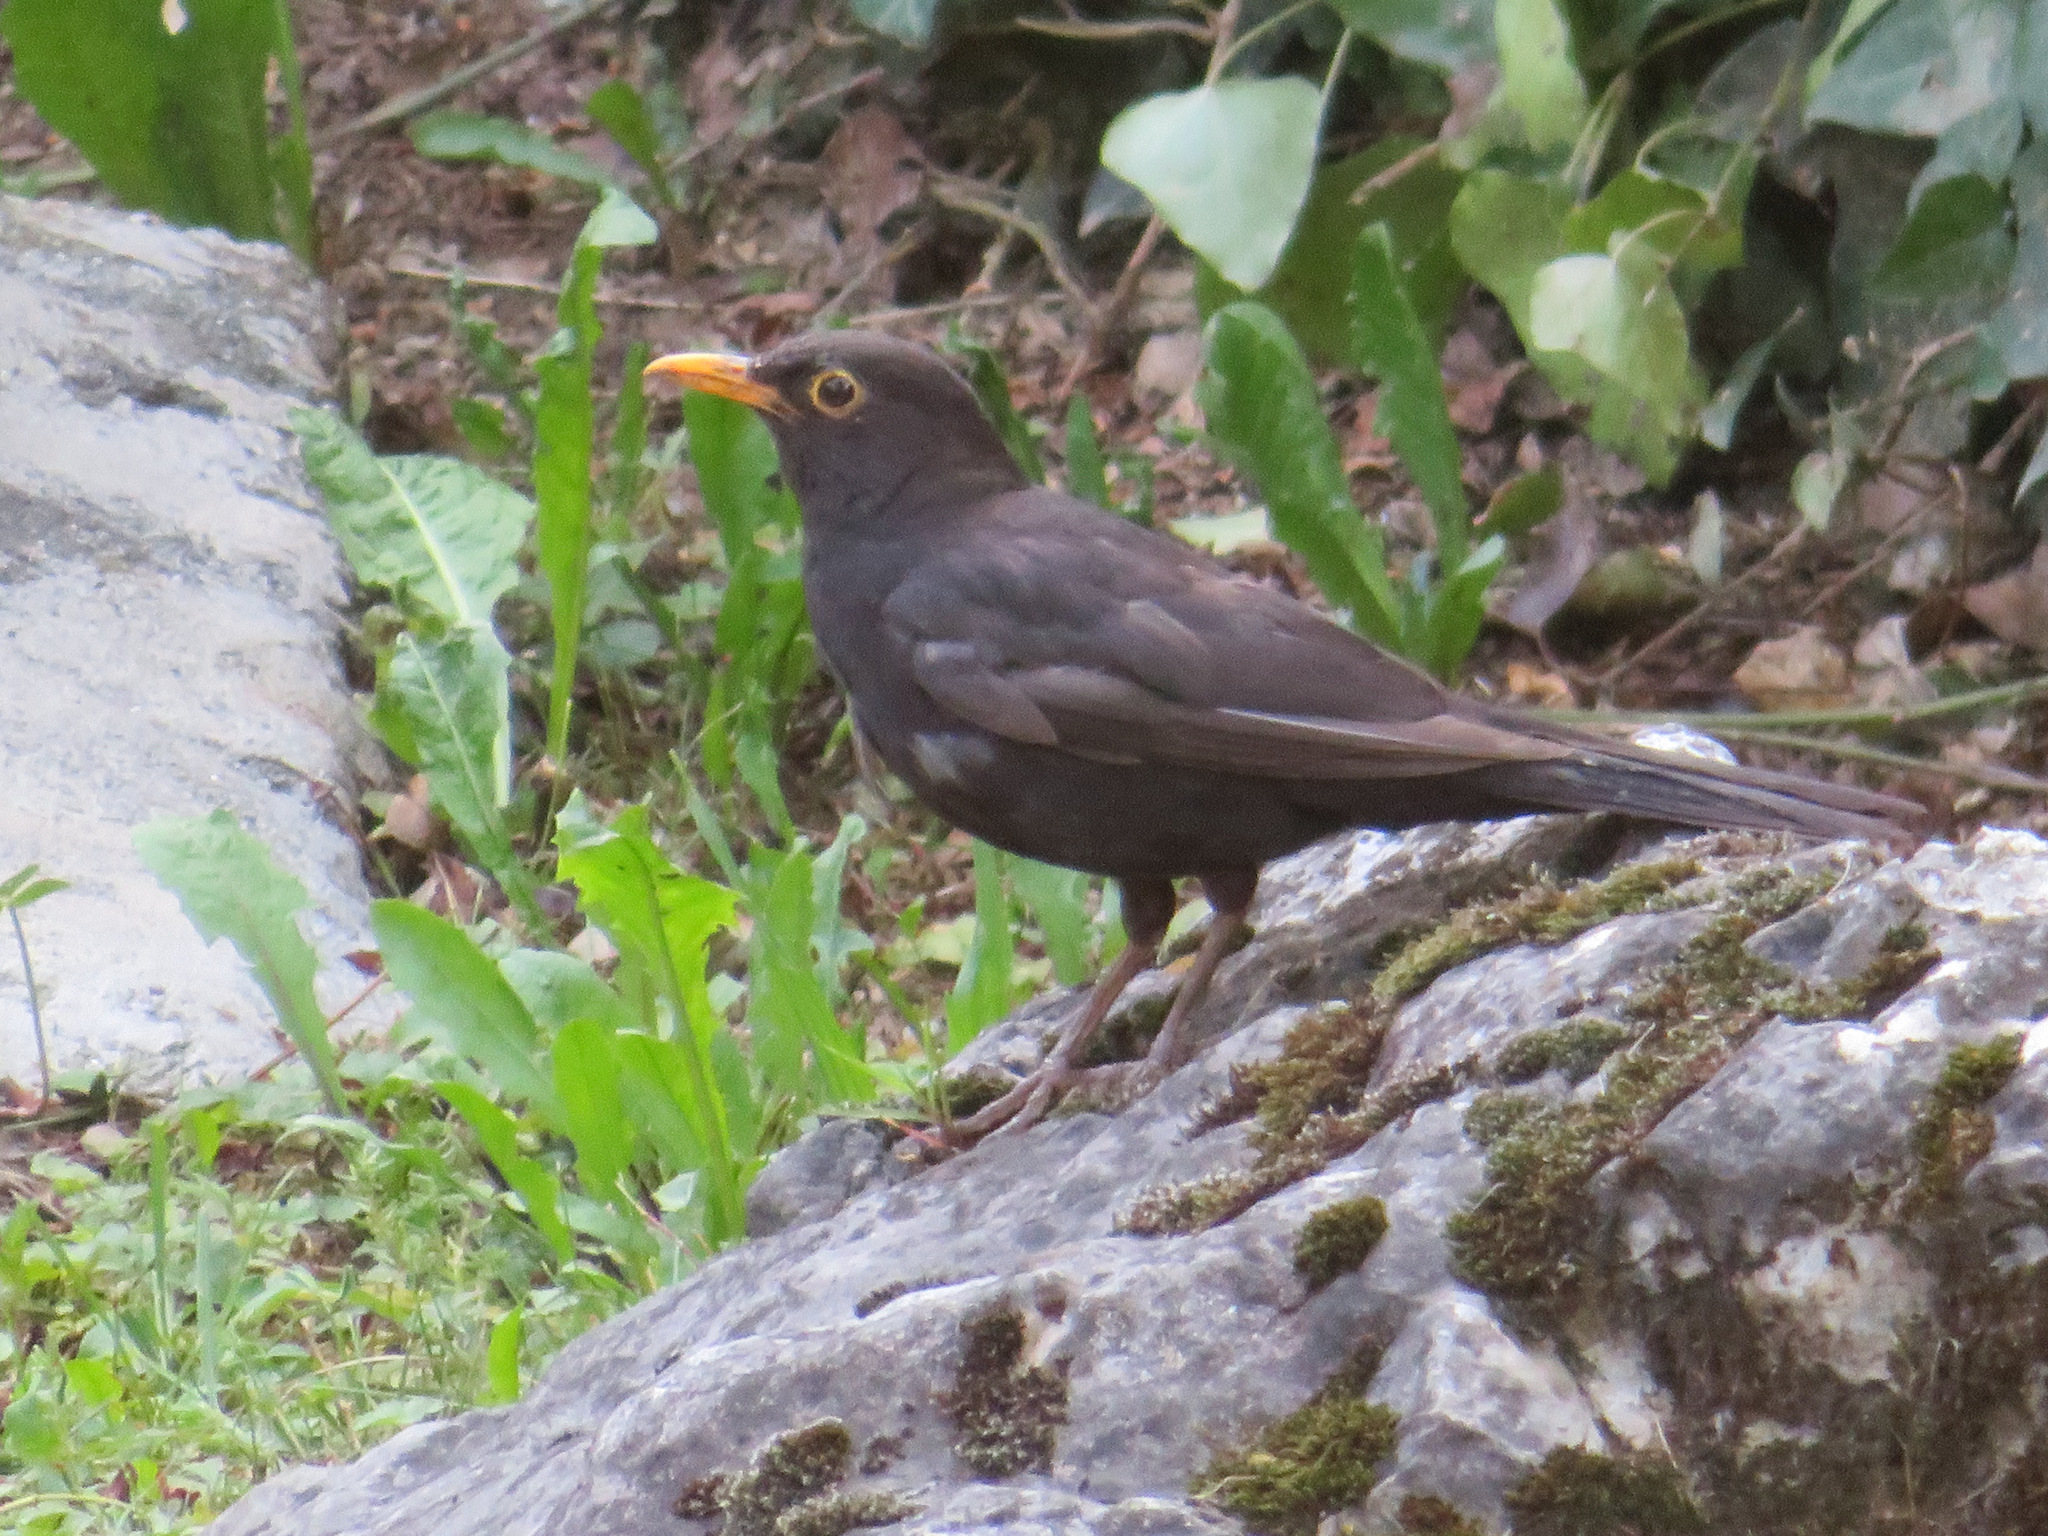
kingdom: Animalia
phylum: Chordata
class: Aves
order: Passeriformes
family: Turdidae
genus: Turdus
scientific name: Turdus merula
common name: Common blackbird
